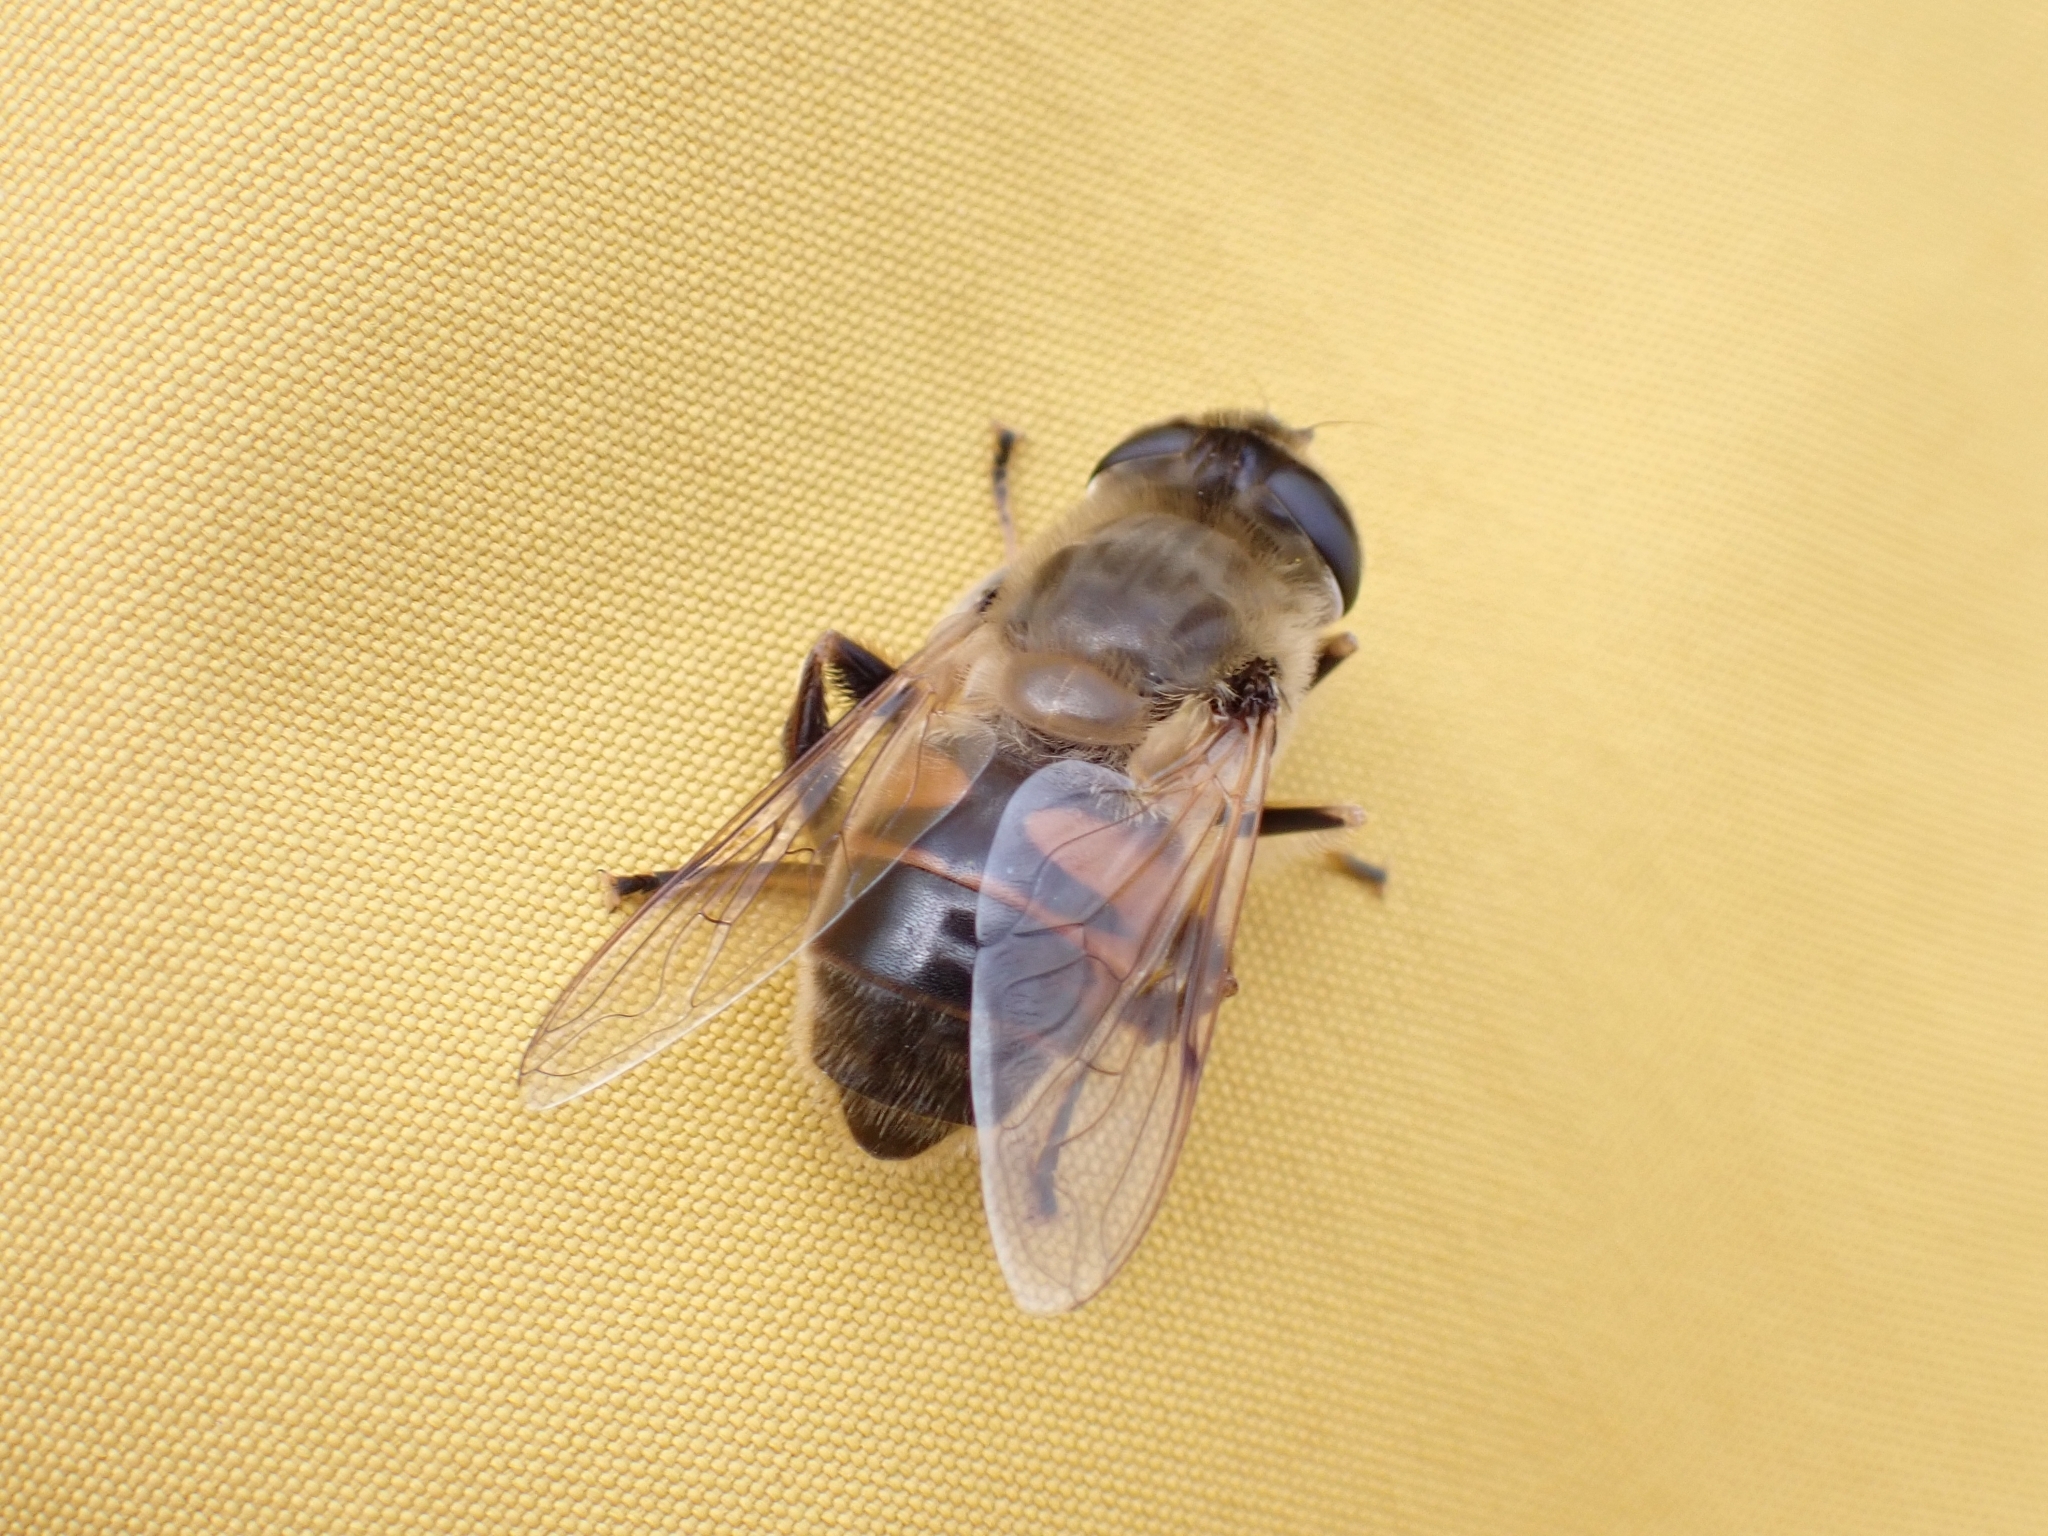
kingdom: Animalia
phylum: Arthropoda
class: Insecta
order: Diptera
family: Syrphidae
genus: Eristalis
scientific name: Eristalis tenax
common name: Drone fly
